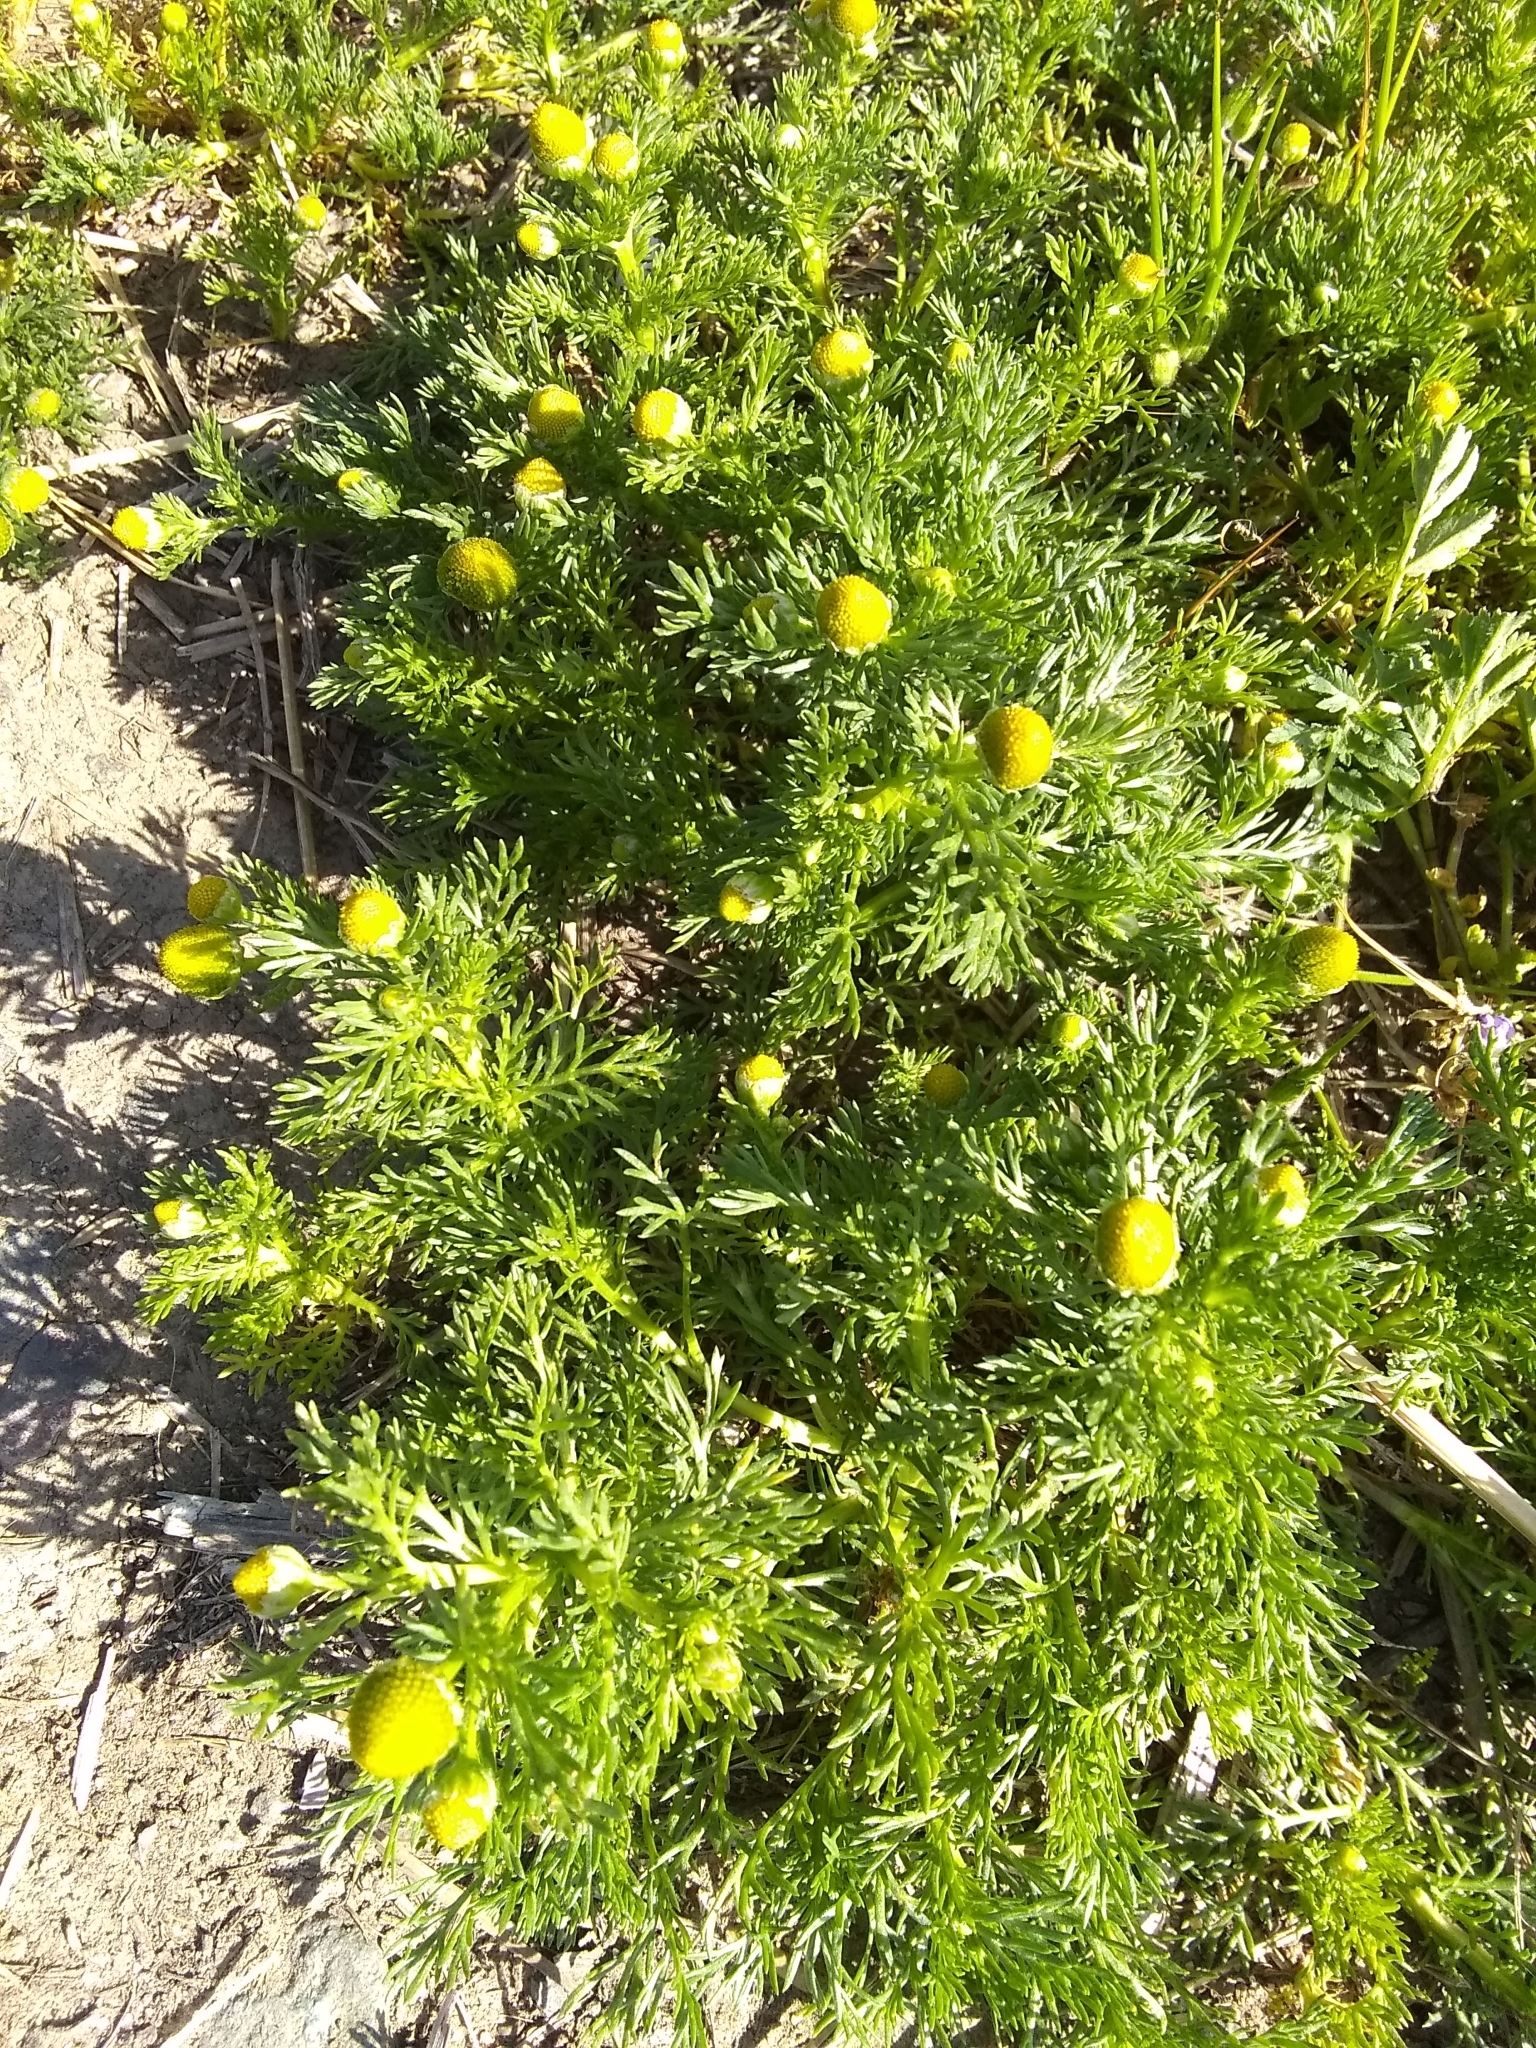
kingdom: Plantae
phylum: Tracheophyta
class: Magnoliopsida
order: Asterales
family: Asteraceae
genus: Matricaria
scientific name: Matricaria discoidea
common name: Disc mayweed
